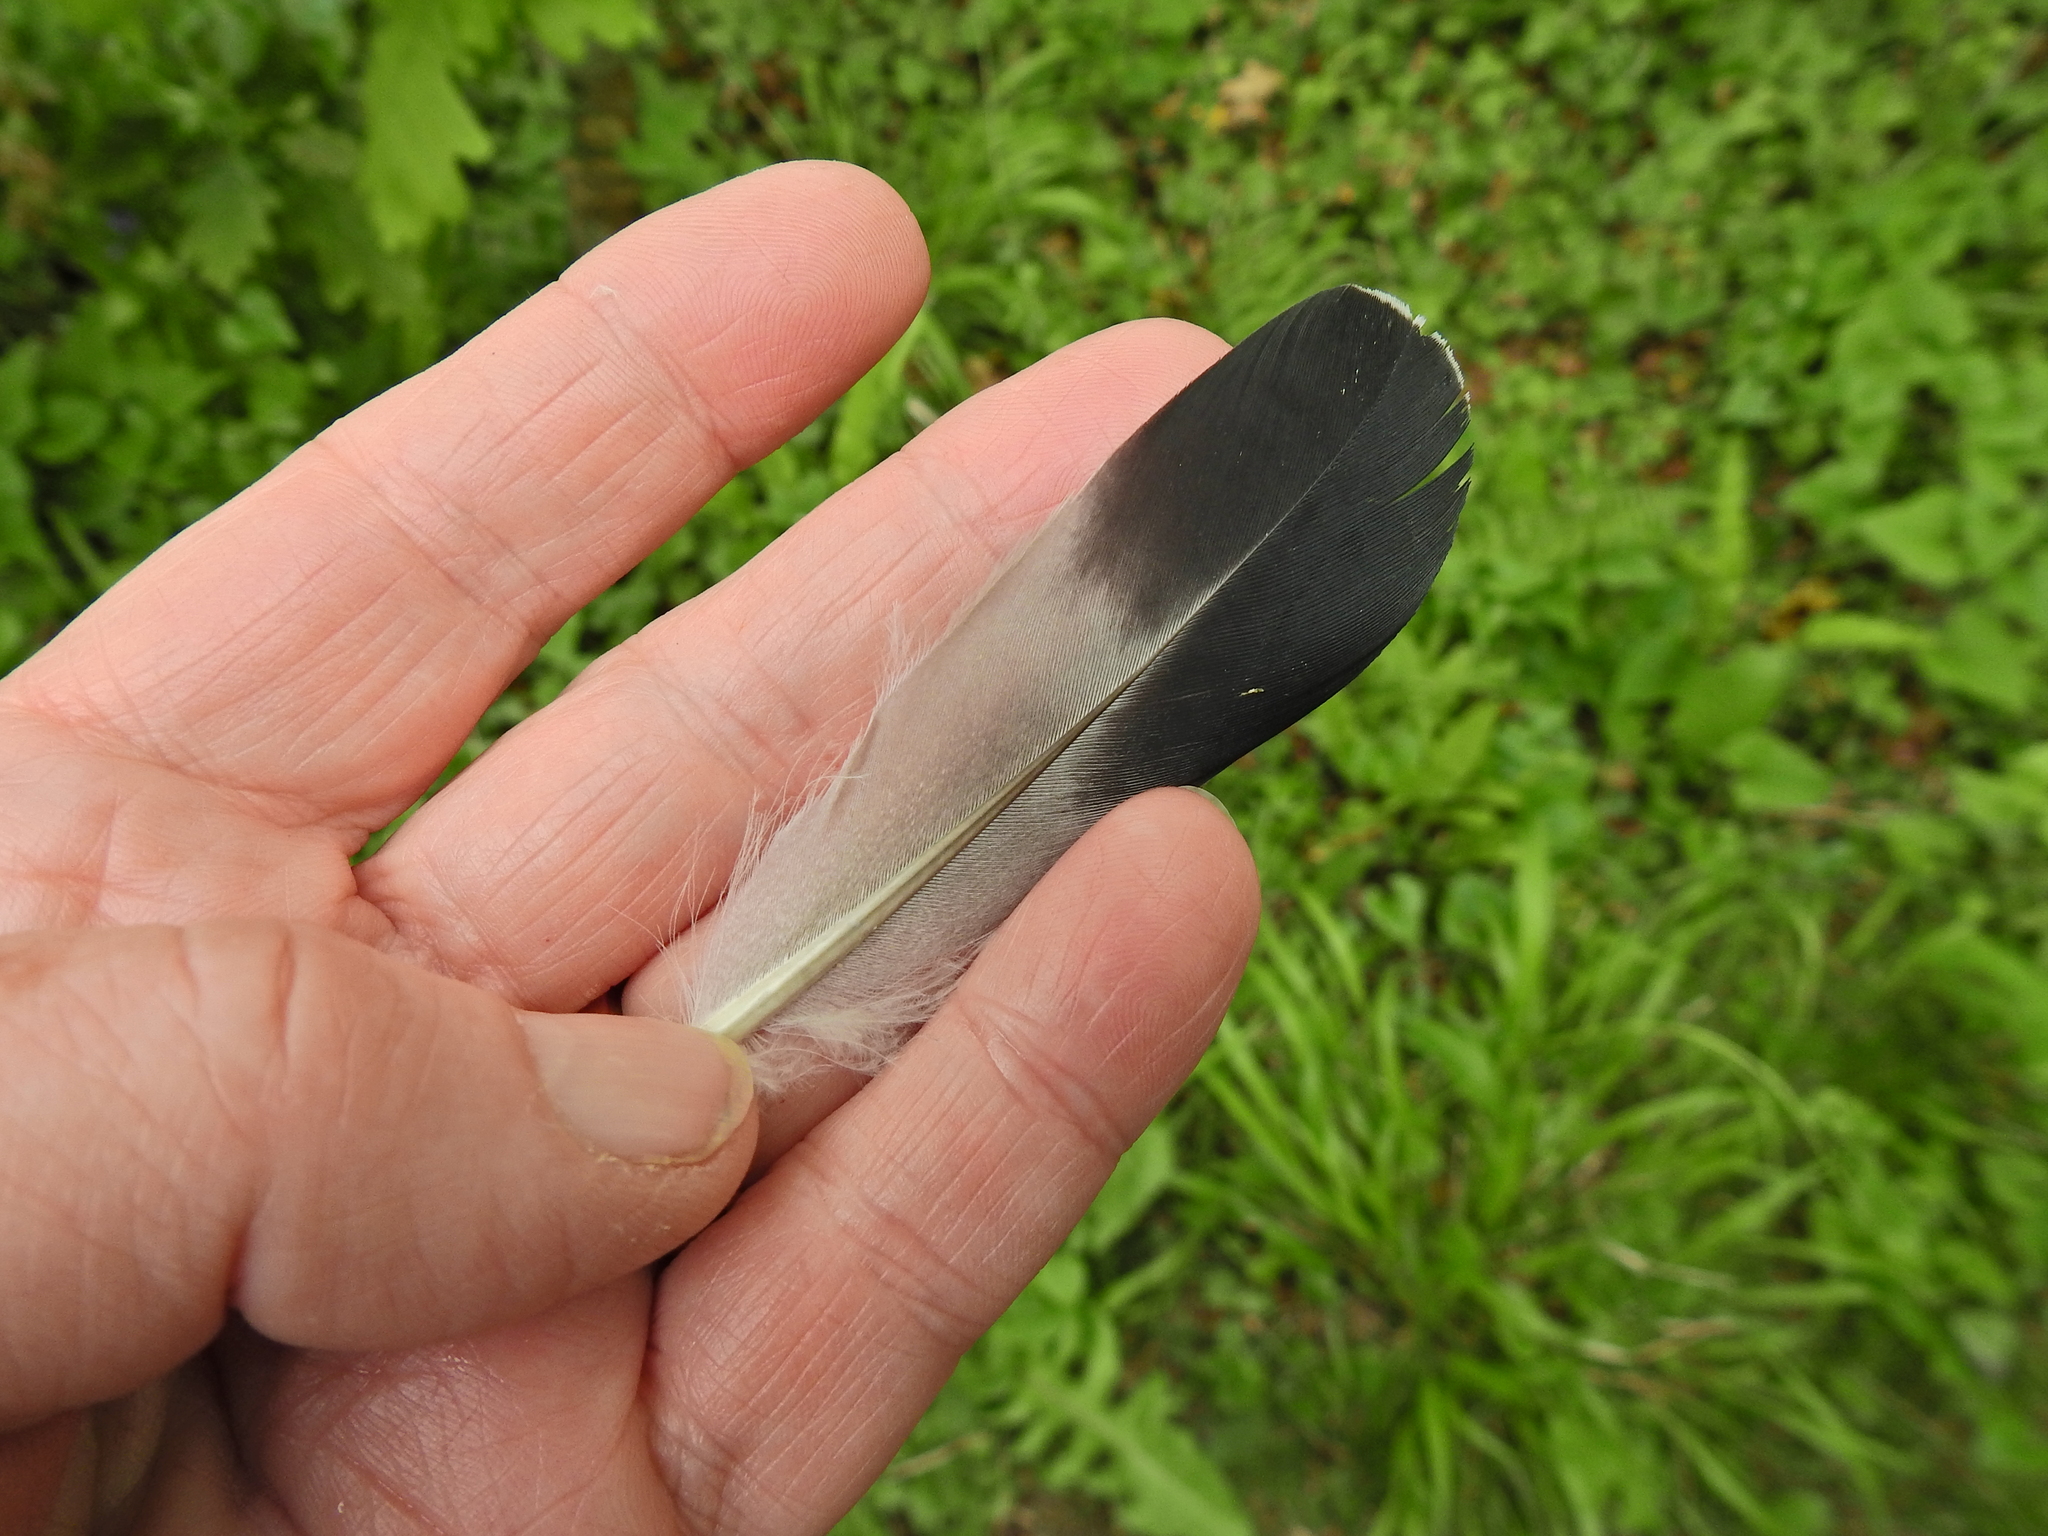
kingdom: Animalia
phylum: Chordata
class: Aves
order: Columbiformes
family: Columbidae
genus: Columba
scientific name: Columba livia
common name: Rock pigeon
